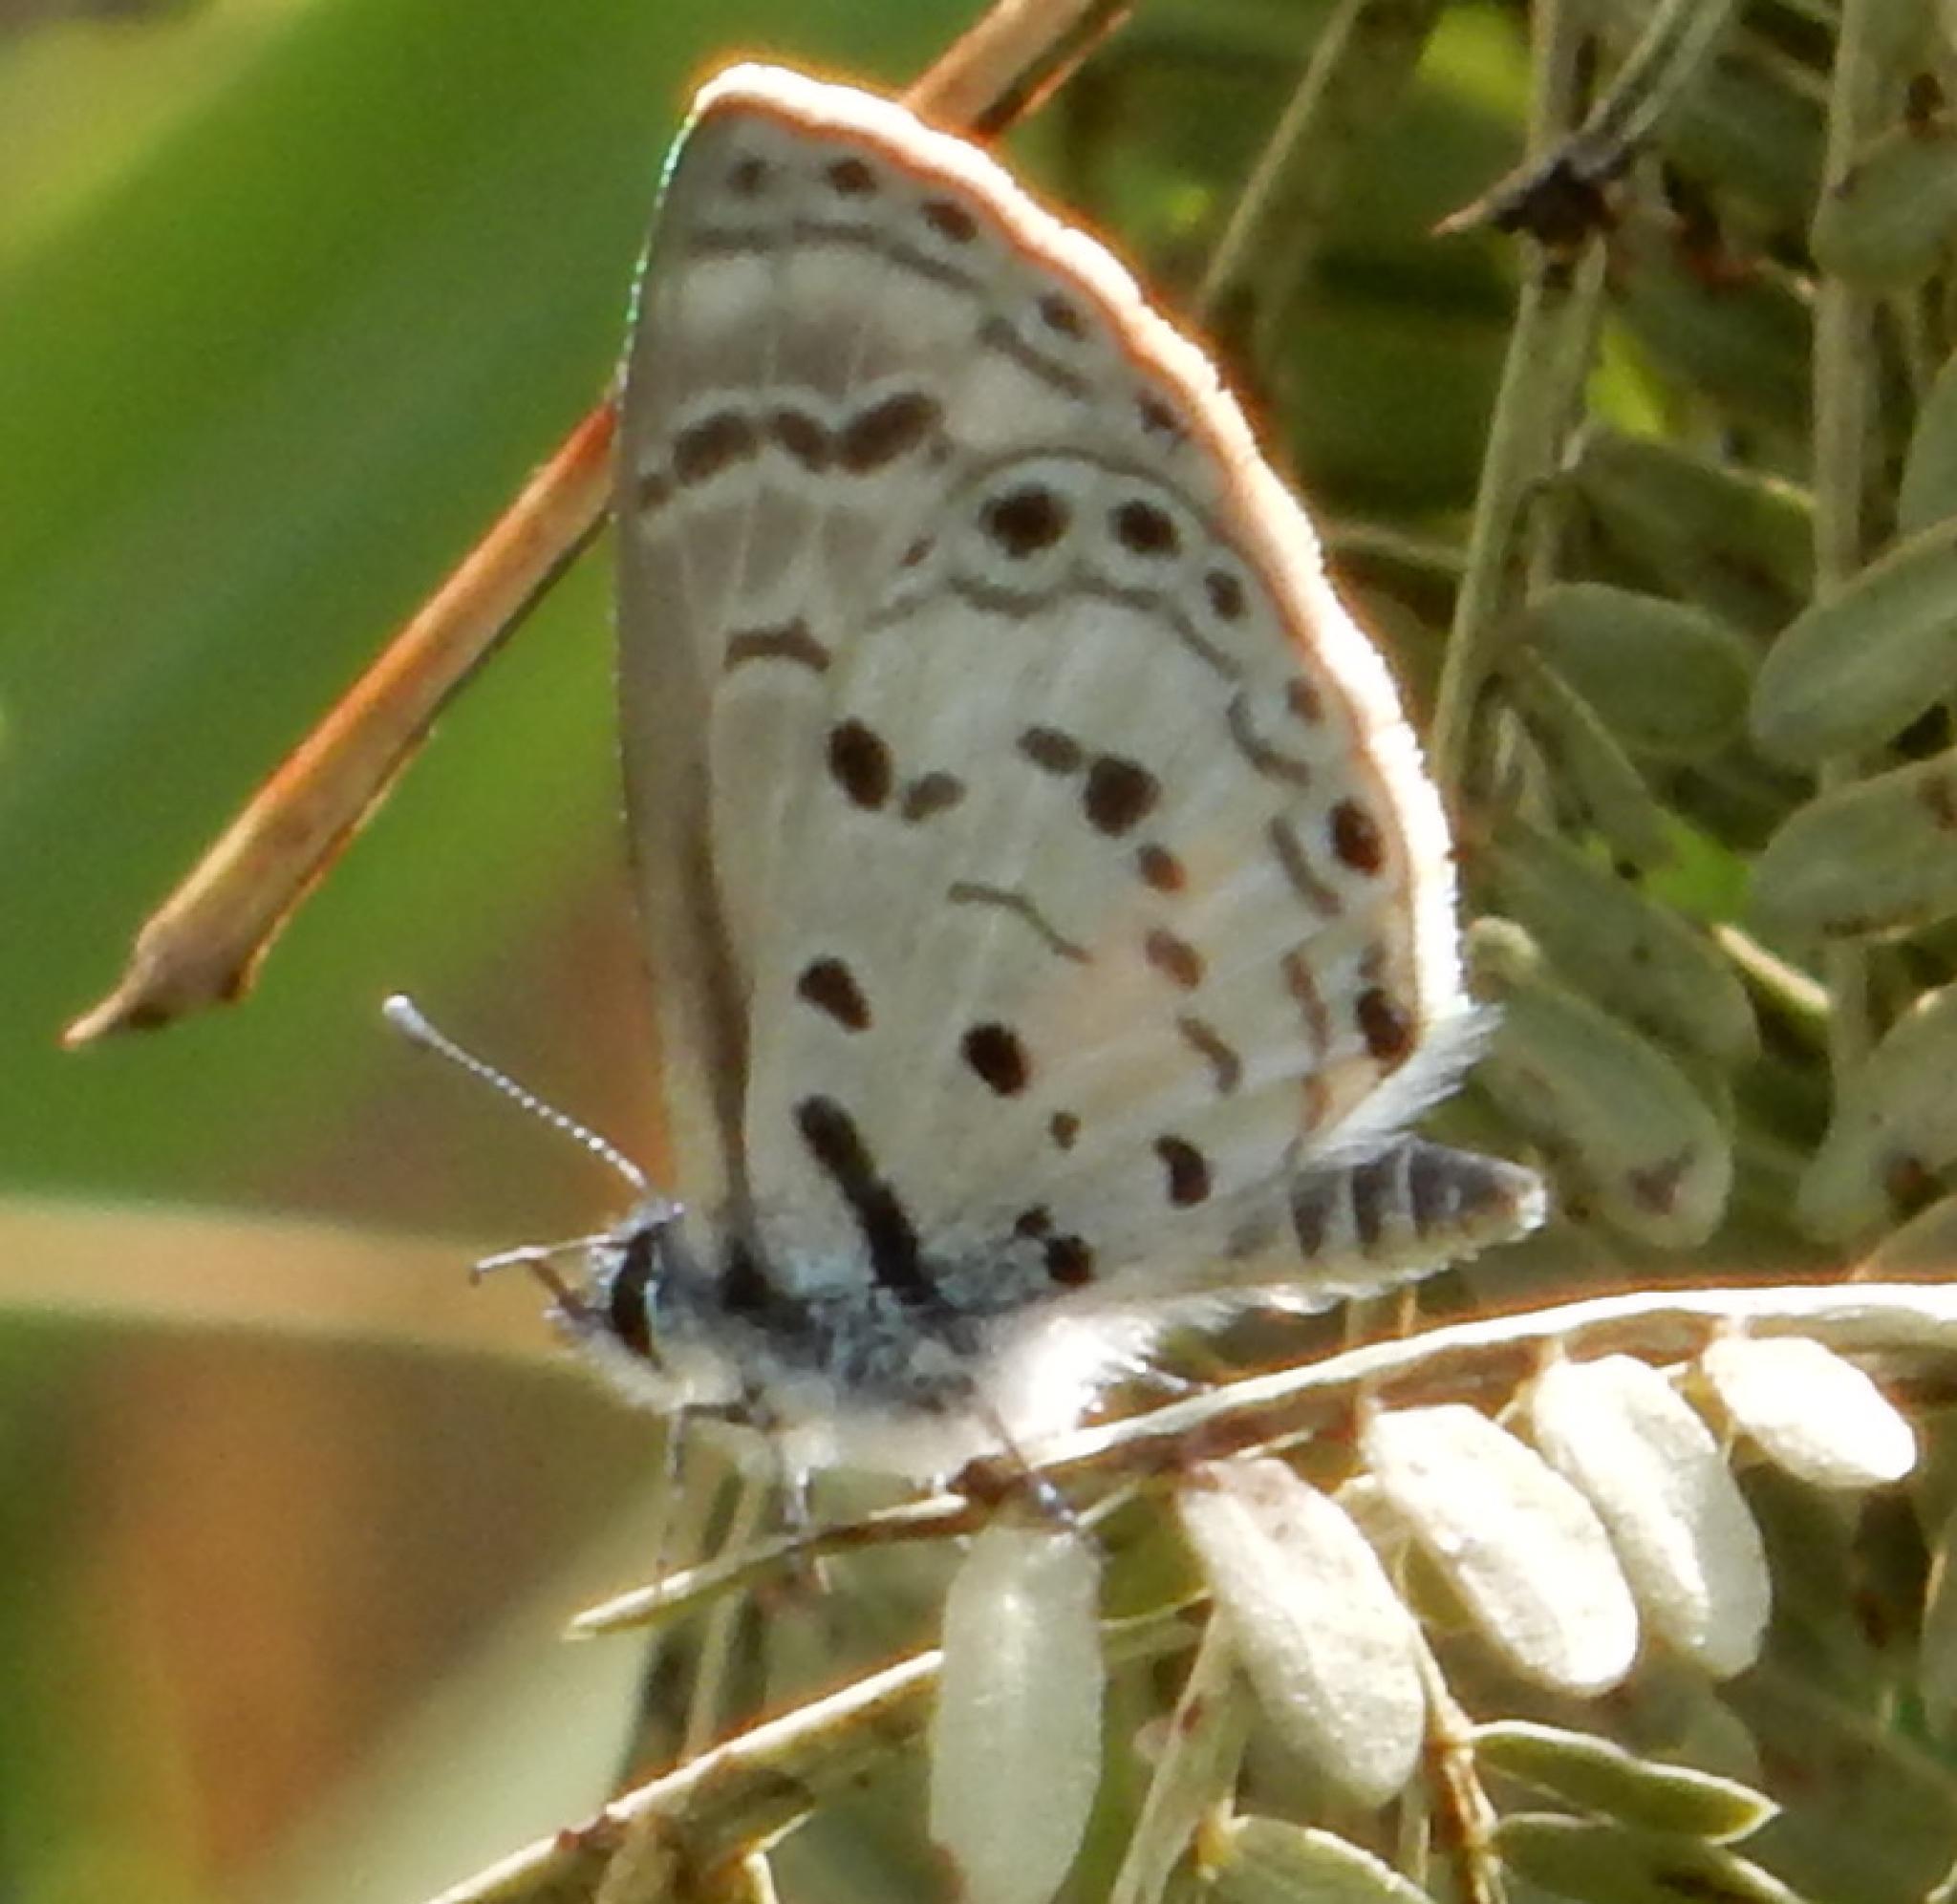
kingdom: Animalia
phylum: Arthropoda
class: Insecta
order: Lepidoptera
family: Lycaenidae
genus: Azanus
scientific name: Azanus moriqua
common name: Thorn-tree babul blue
